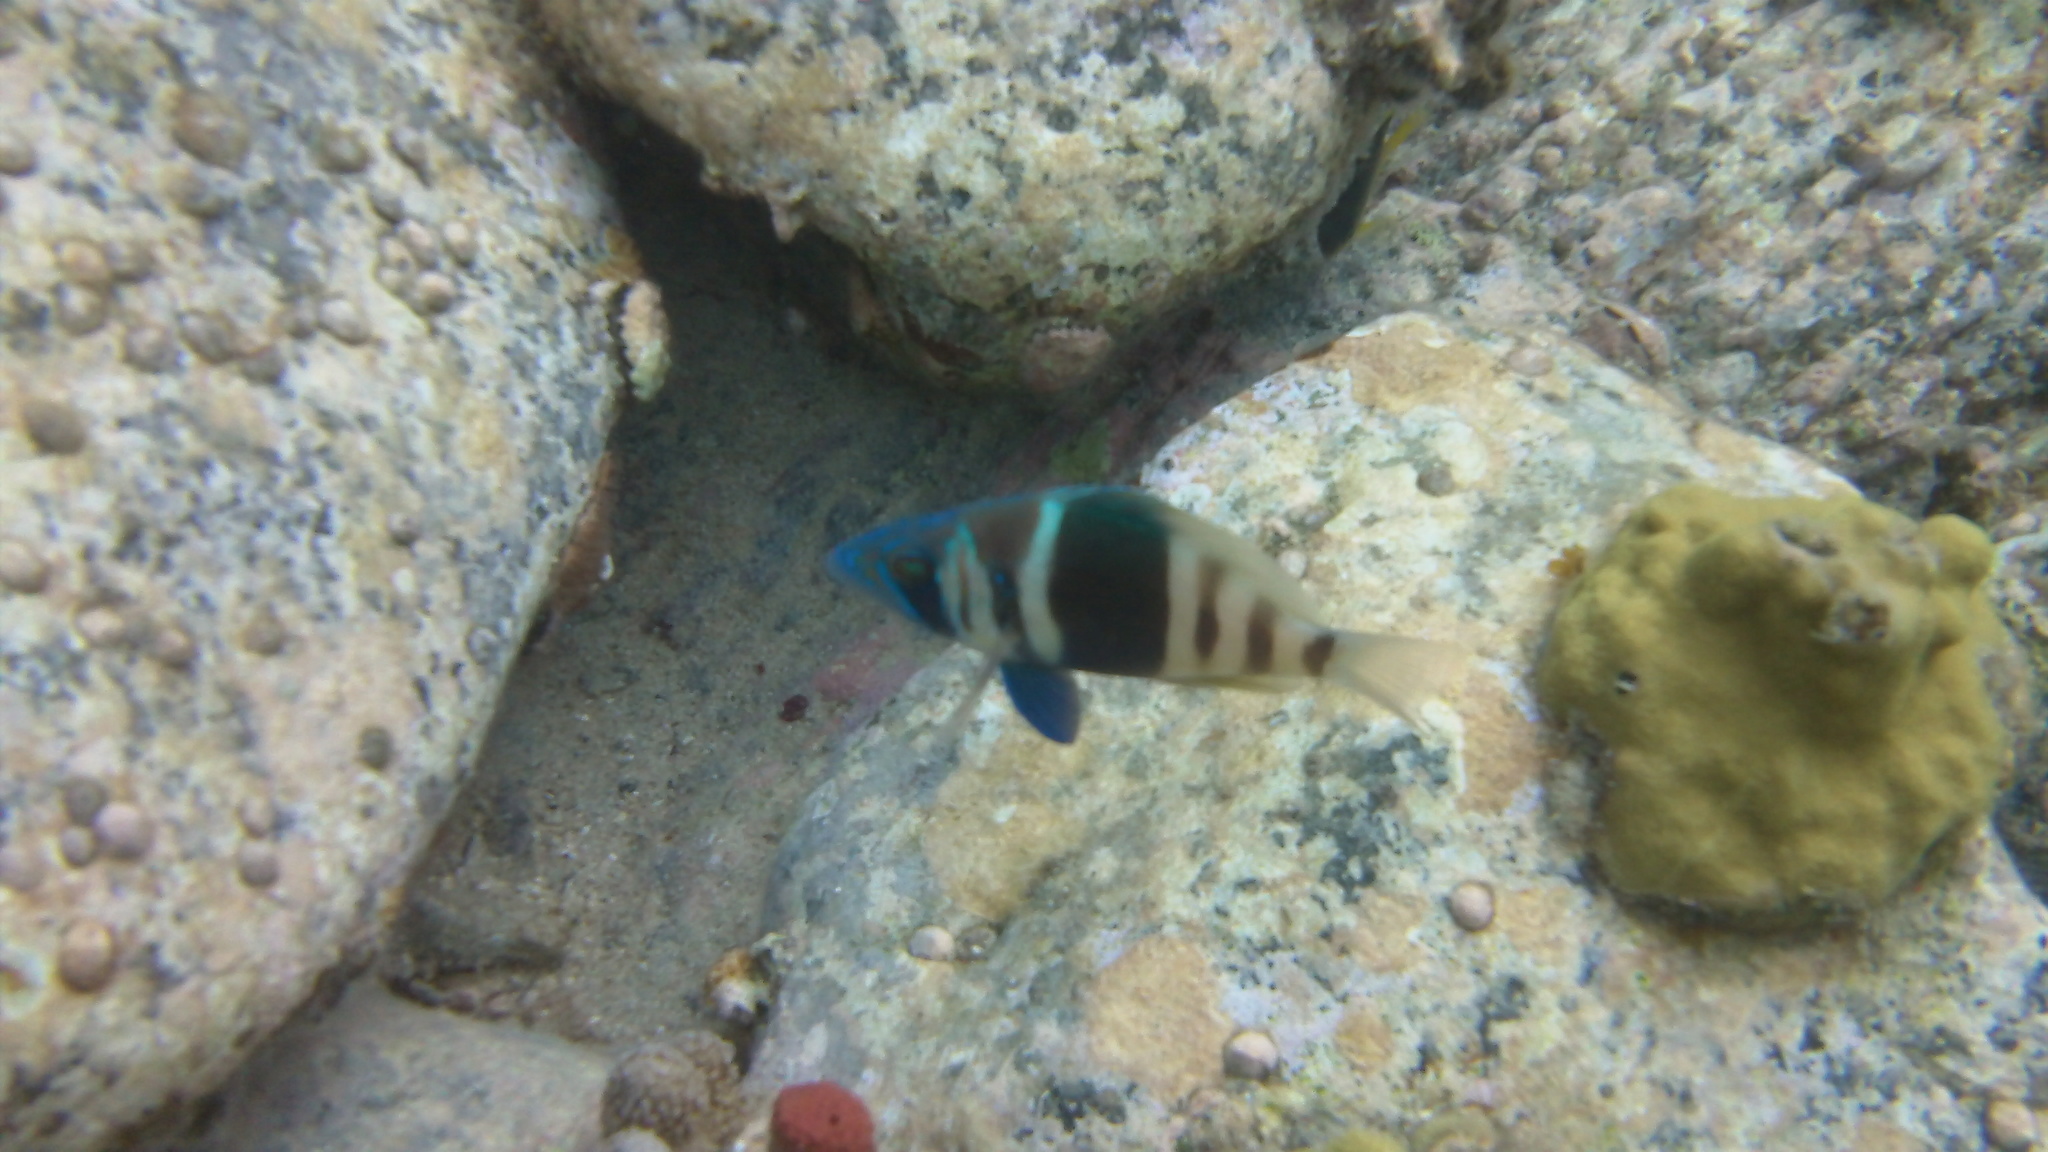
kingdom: Animalia
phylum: Chordata
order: Perciformes
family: Serranidae
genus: Hypoplectrus
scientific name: Hypoplectrus indigo
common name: Indigo hamlet
